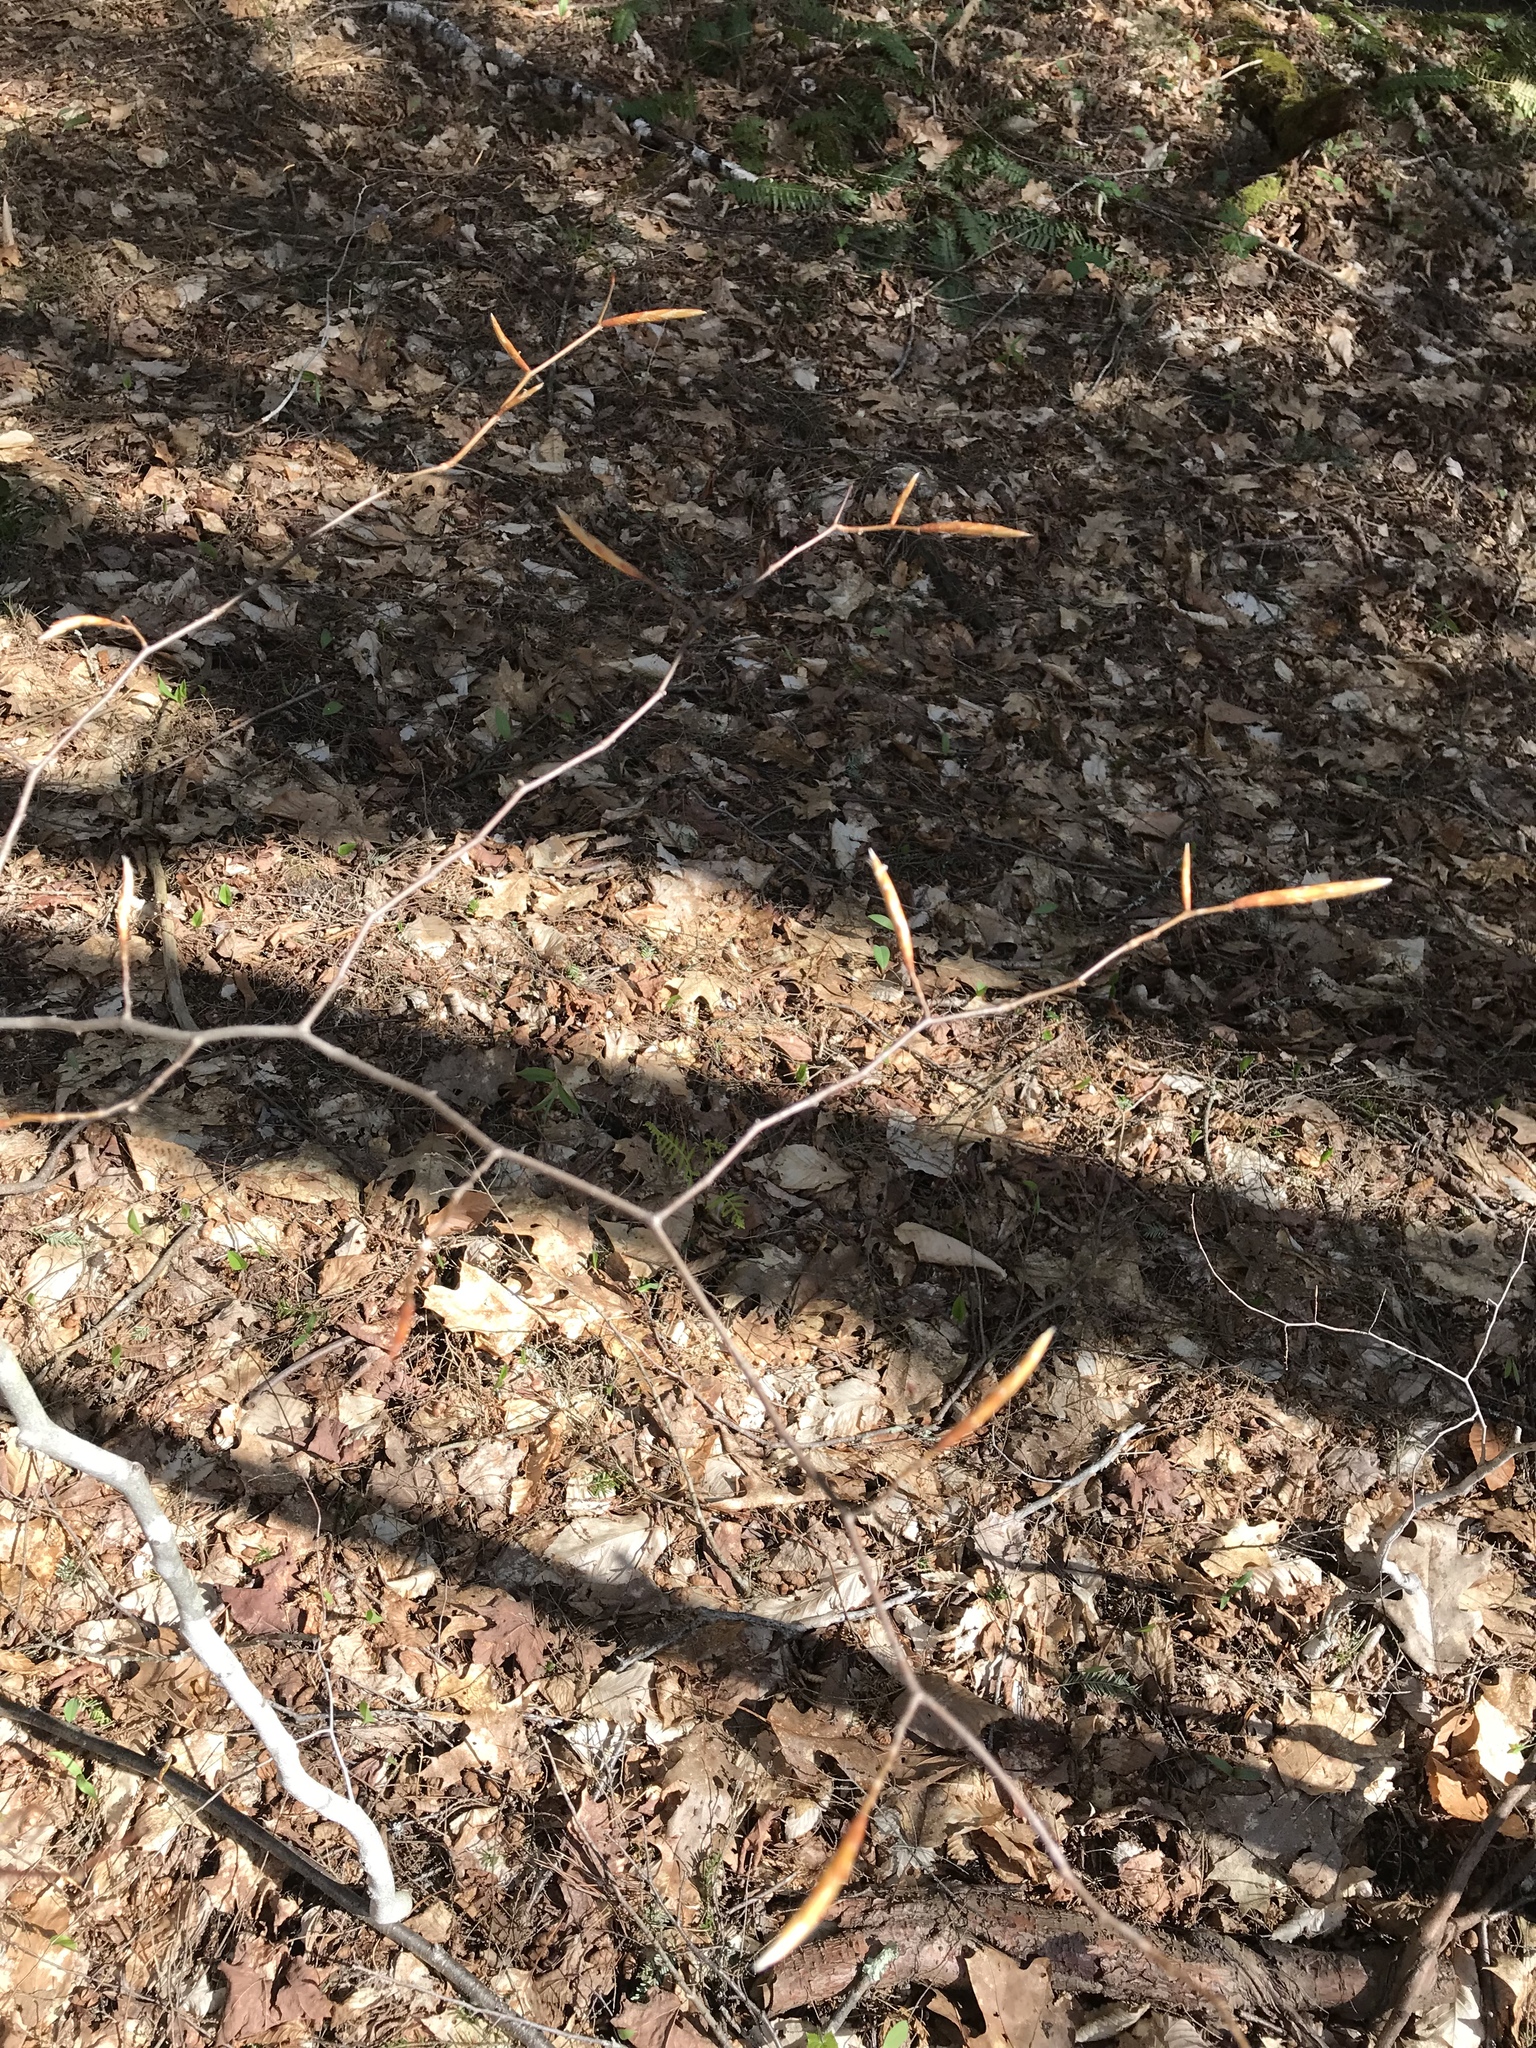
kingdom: Plantae
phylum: Tracheophyta
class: Magnoliopsida
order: Fagales
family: Fagaceae
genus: Fagus
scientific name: Fagus grandifolia
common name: American beech
